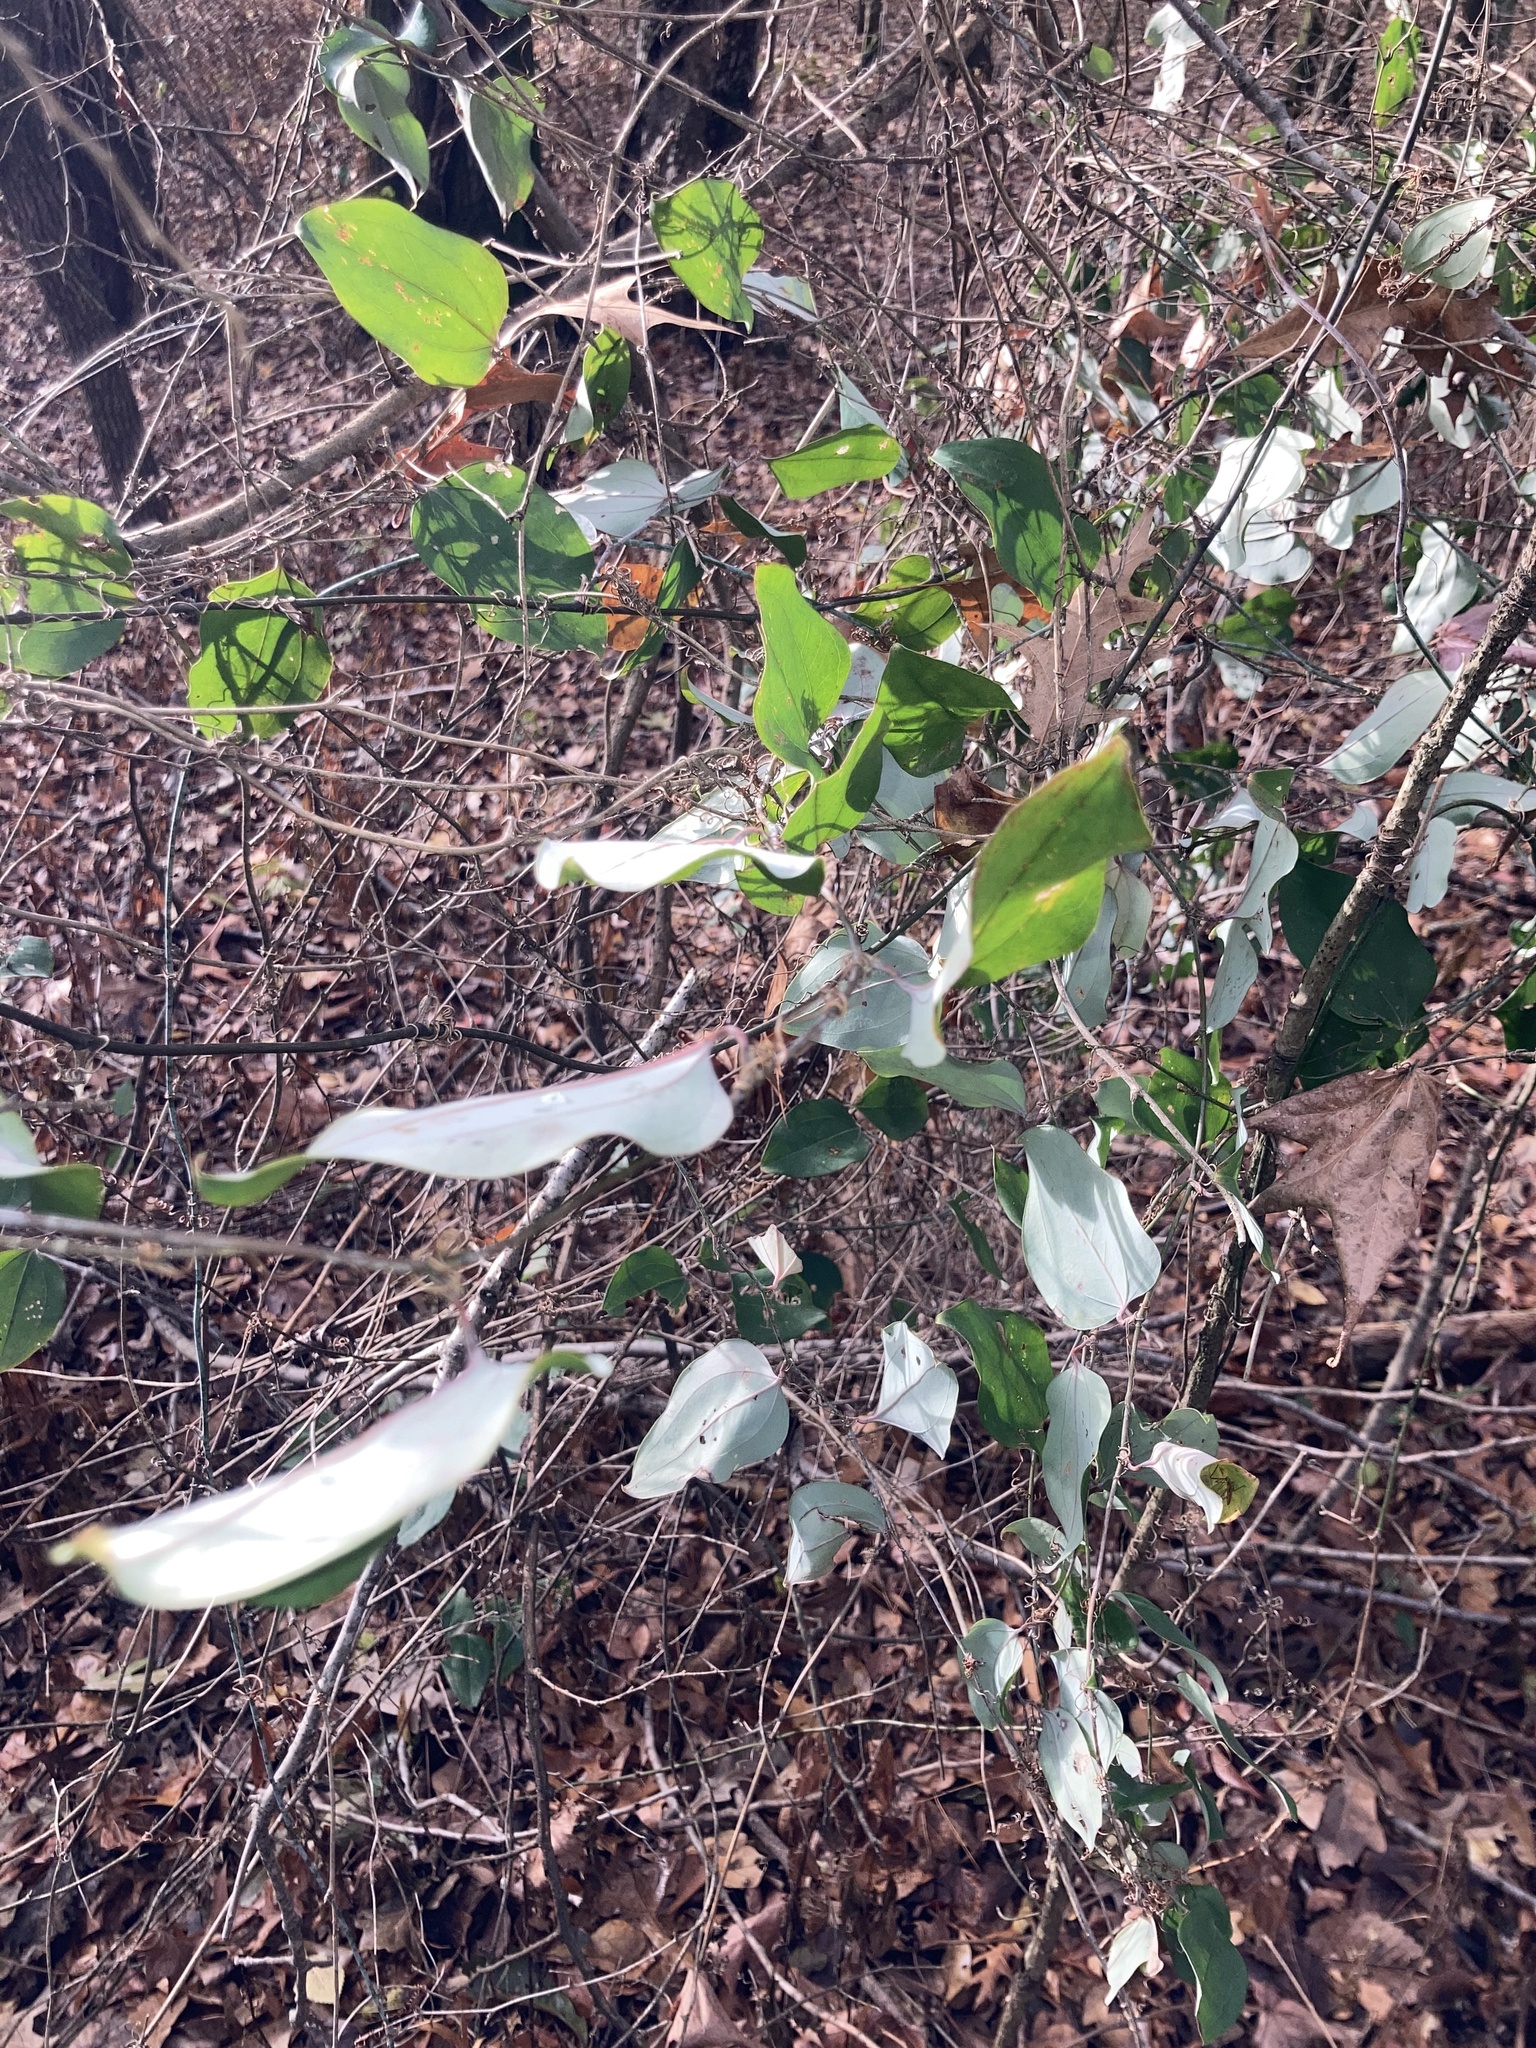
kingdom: Plantae
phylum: Tracheophyta
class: Liliopsida
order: Liliales
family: Smilacaceae
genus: Smilax
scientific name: Smilax glauca
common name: Cat greenbrier
